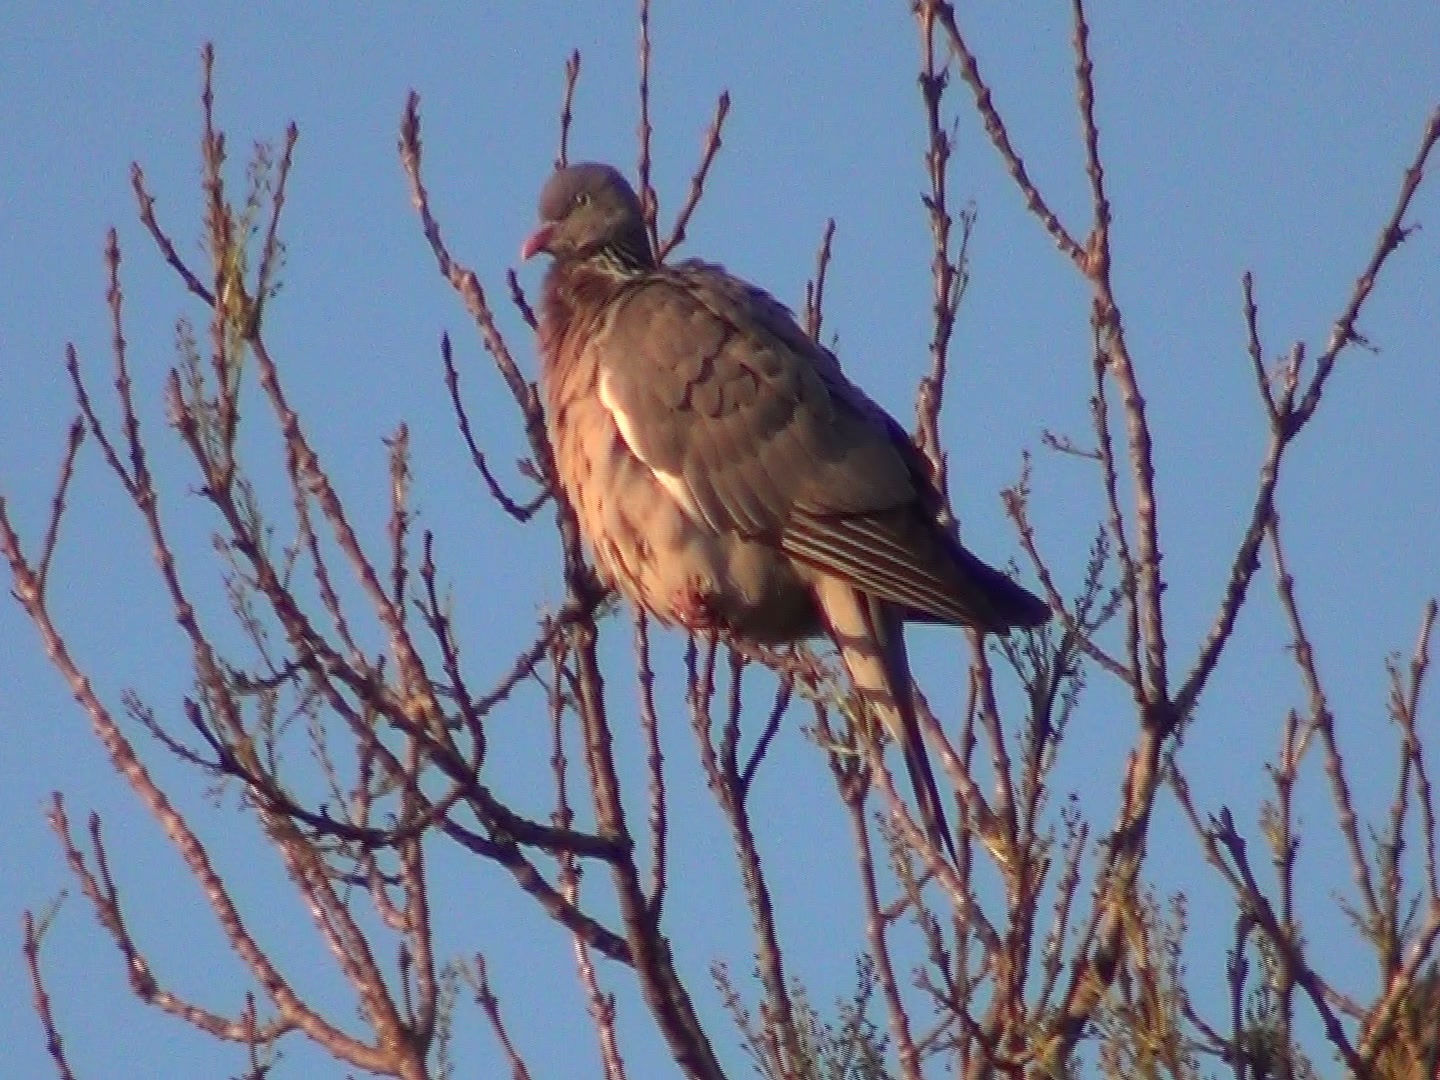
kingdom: Animalia
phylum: Chordata
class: Aves
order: Columbiformes
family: Columbidae
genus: Columba
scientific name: Columba palumbus
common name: Common wood pigeon
